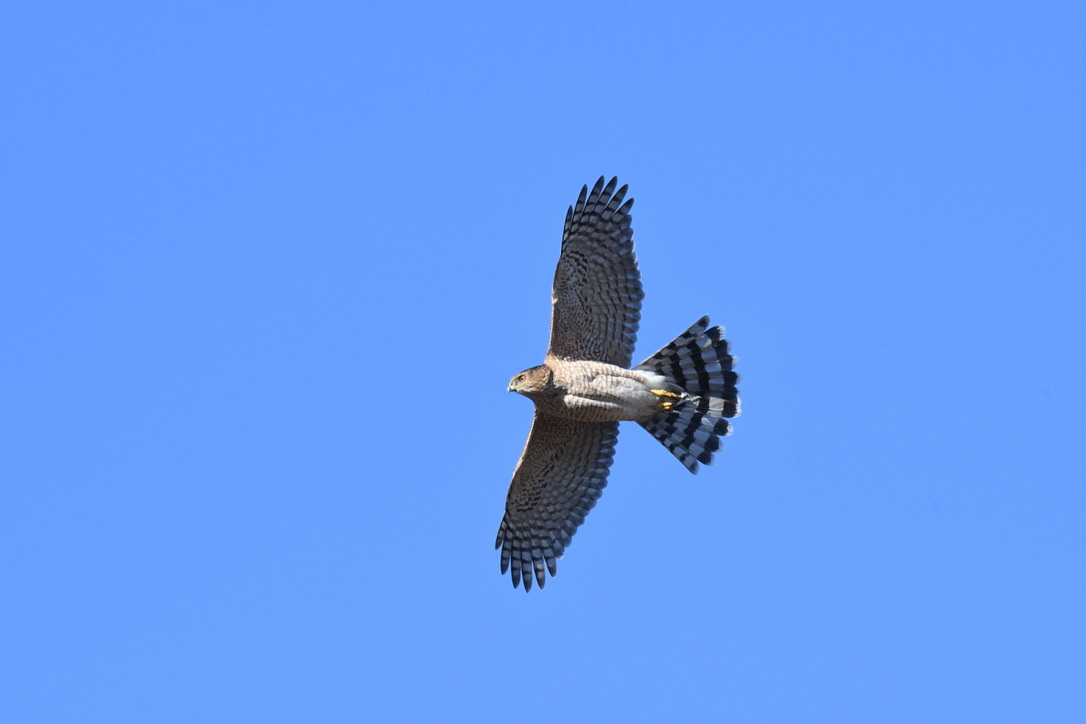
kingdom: Animalia
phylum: Chordata
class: Aves
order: Accipitriformes
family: Accipitridae
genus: Accipiter
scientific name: Accipiter cooperii
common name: Cooper's hawk
